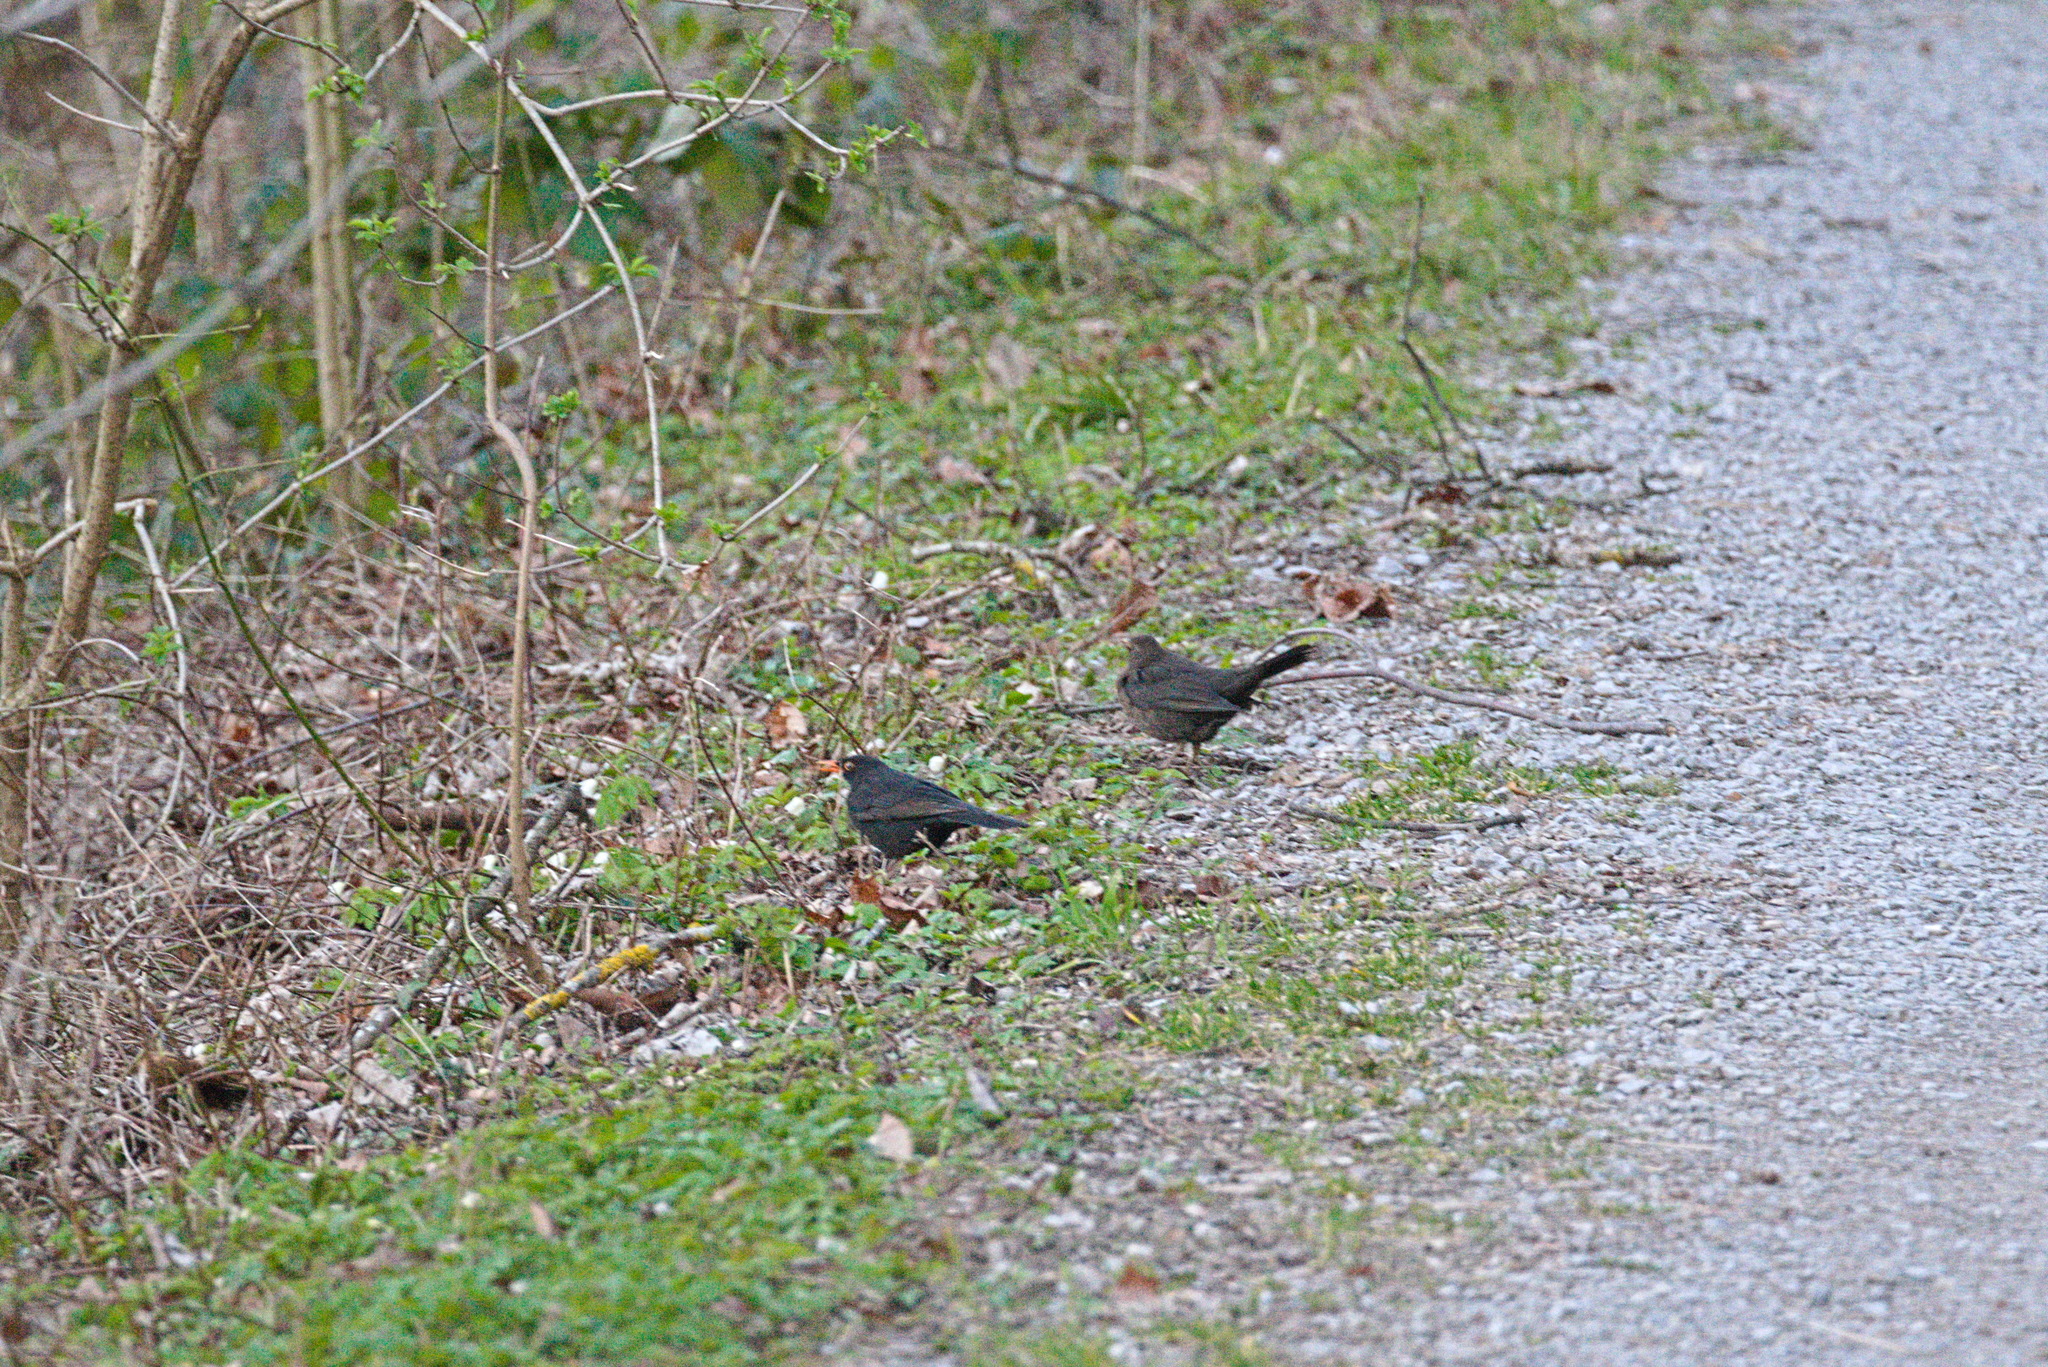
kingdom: Animalia
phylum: Chordata
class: Aves
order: Passeriformes
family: Turdidae
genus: Turdus
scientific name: Turdus merula
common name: Common blackbird
